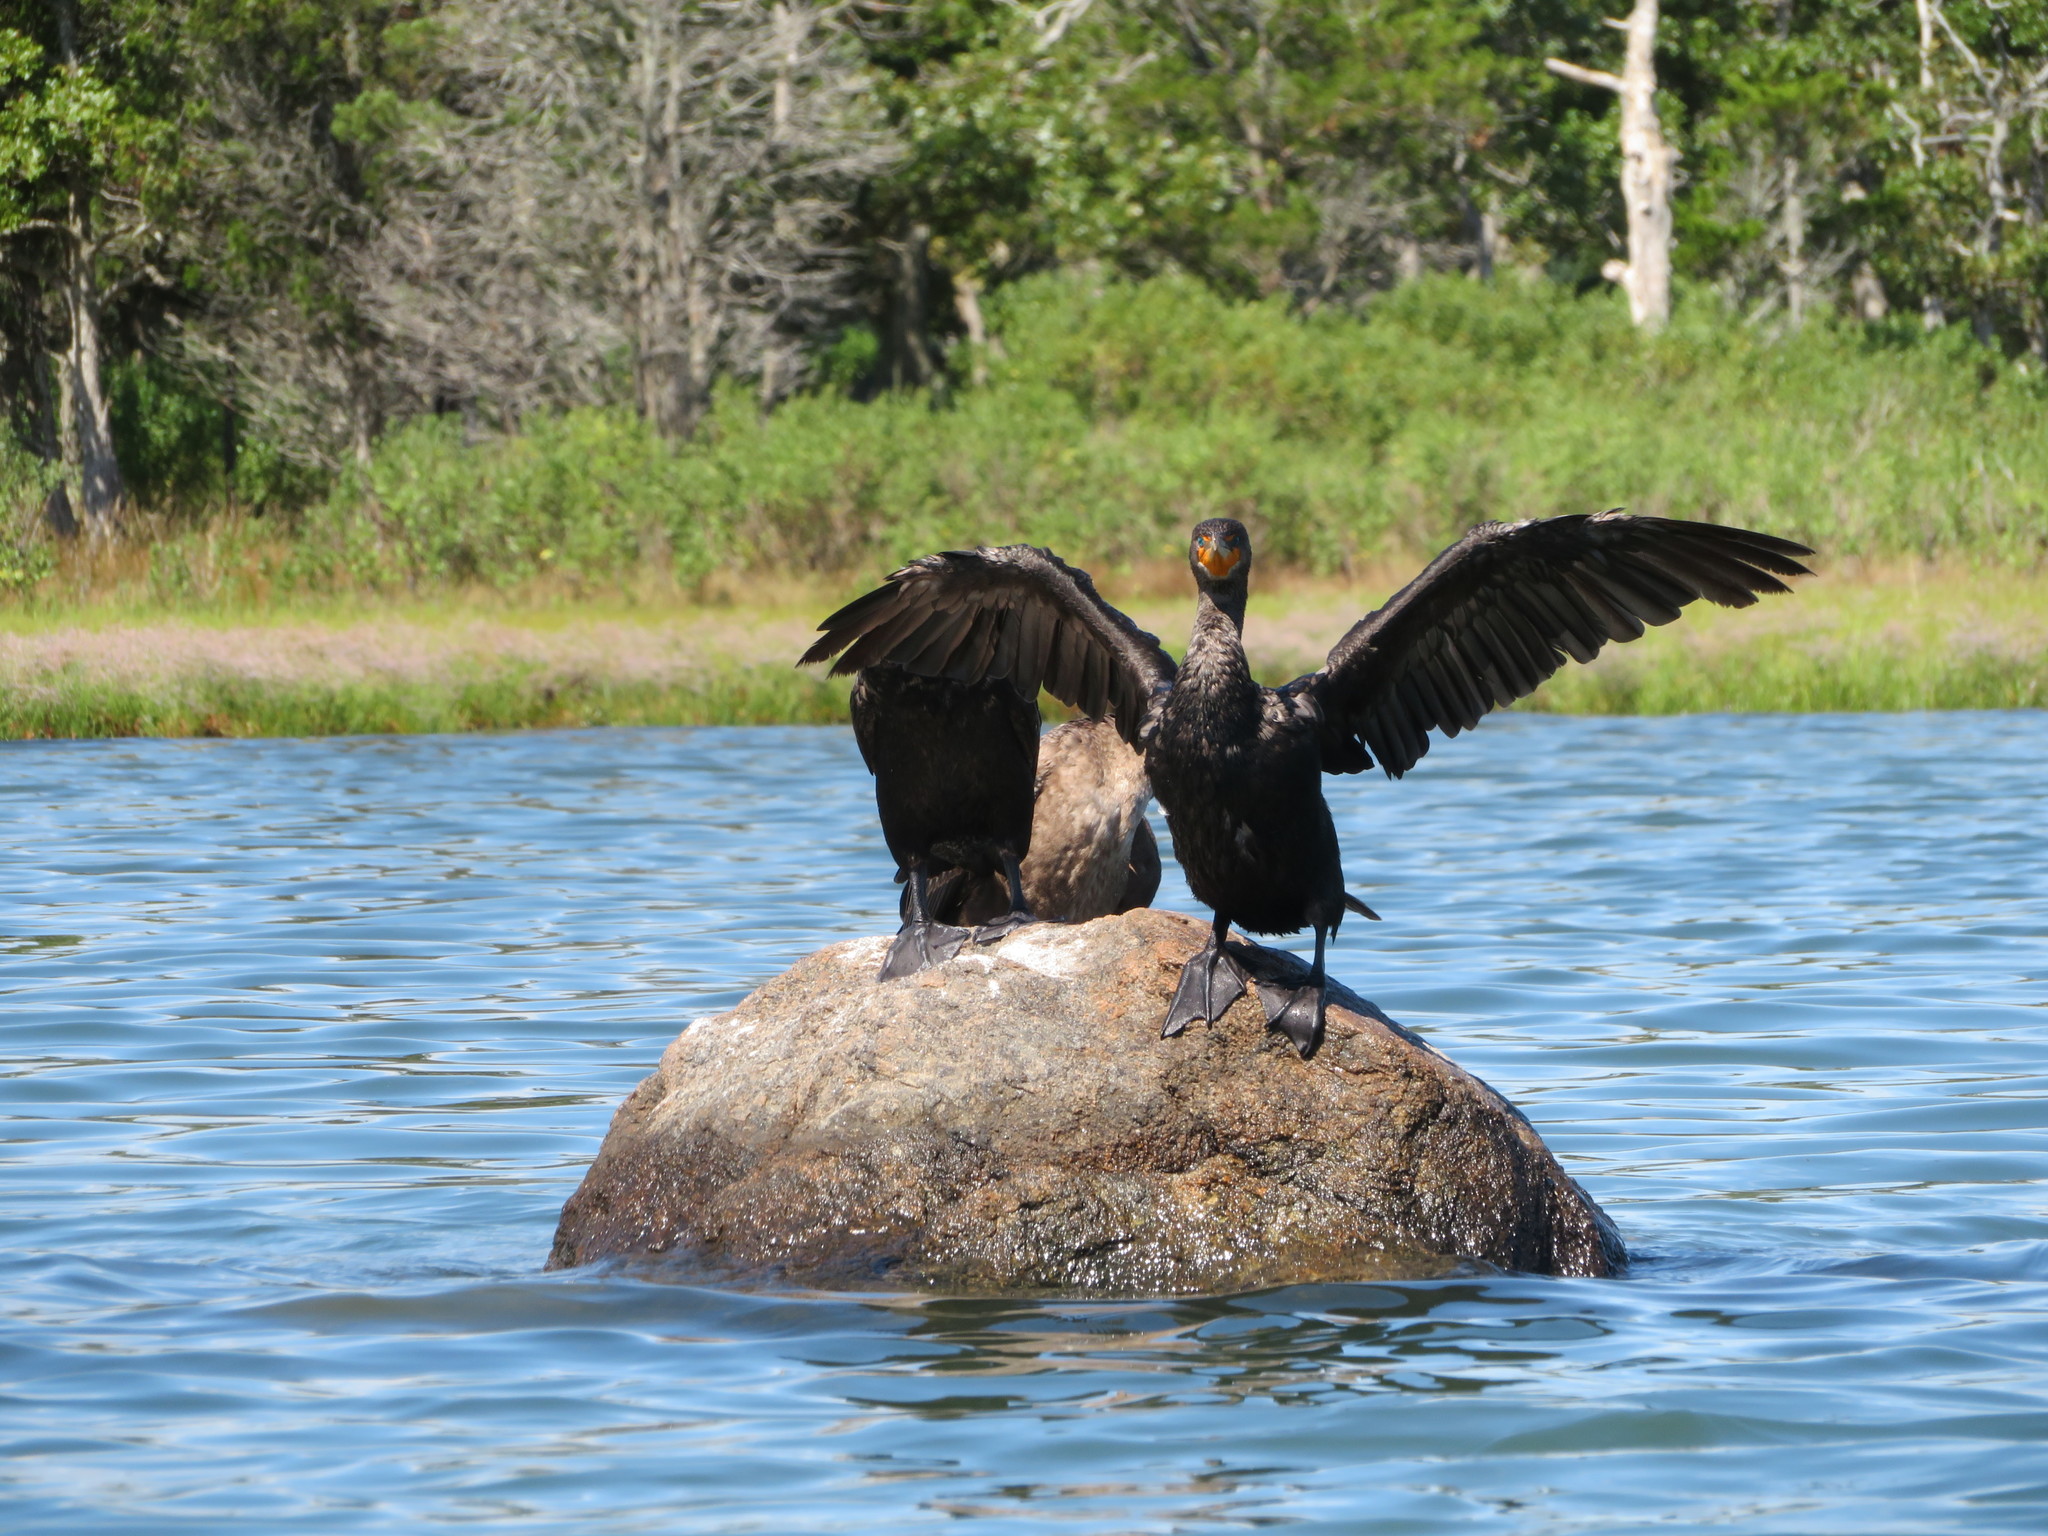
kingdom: Animalia
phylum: Chordata
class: Aves
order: Suliformes
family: Phalacrocoracidae
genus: Phalacrocorax
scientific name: Phalacrocorax auritus
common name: Double-crested cormorant
